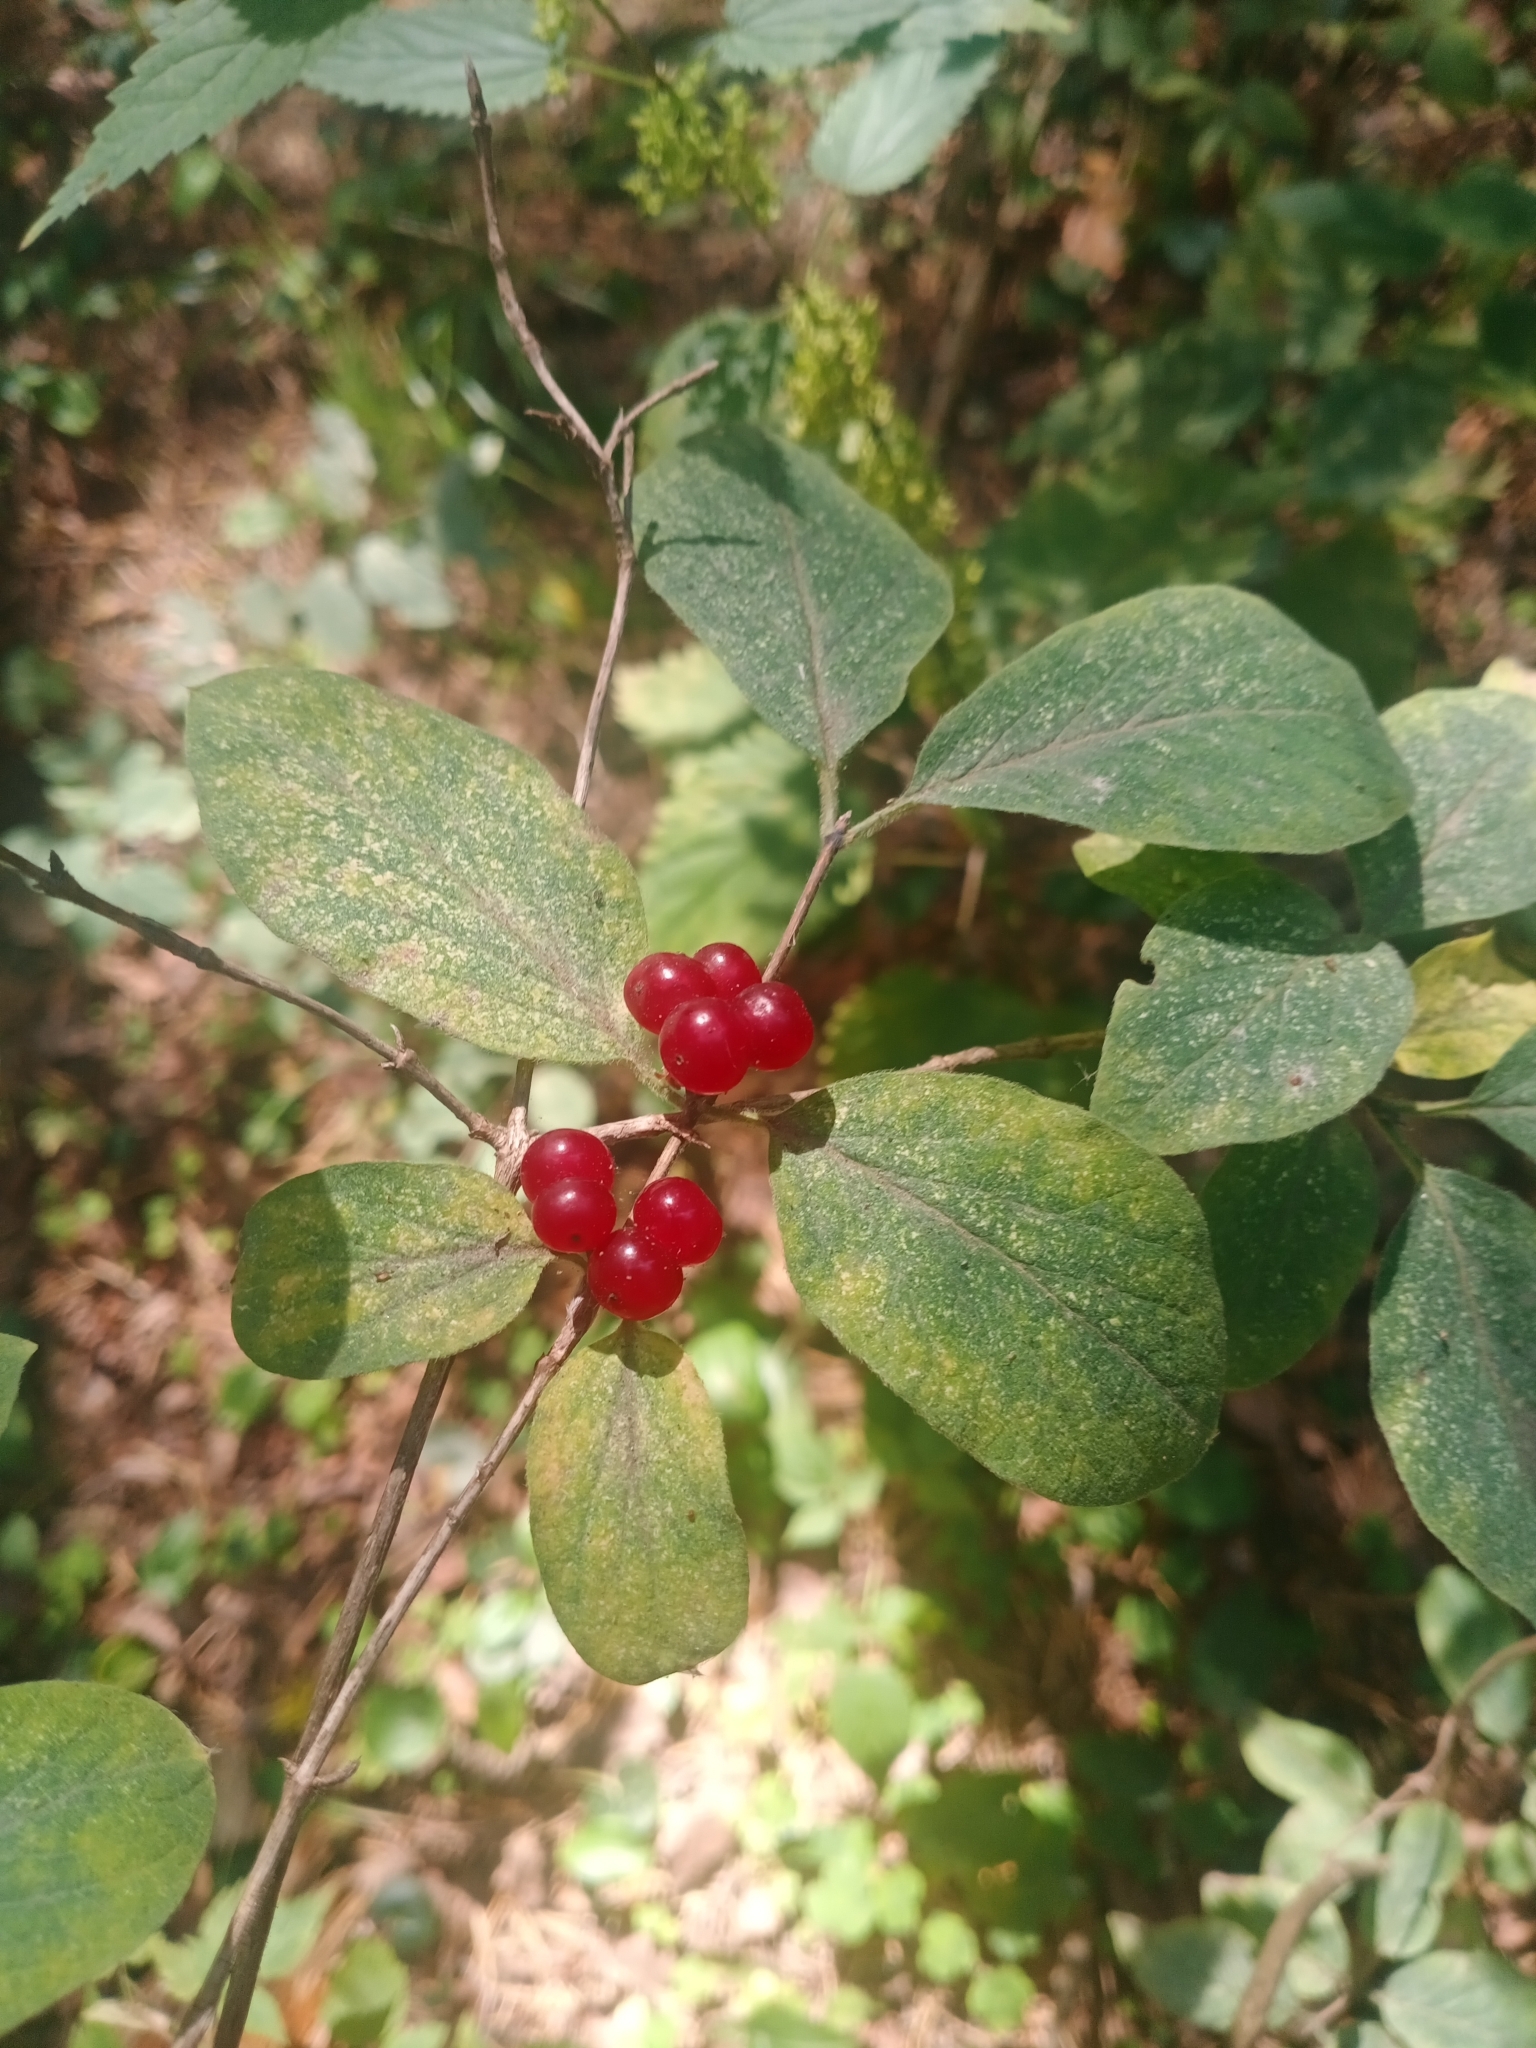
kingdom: Plantae
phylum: Tracheophyta
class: Magnoliopsida
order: Dipsacales
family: Caprifoliaceae
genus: Lonicera
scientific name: Lonicera xylosteum
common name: Fly honeysuckle
